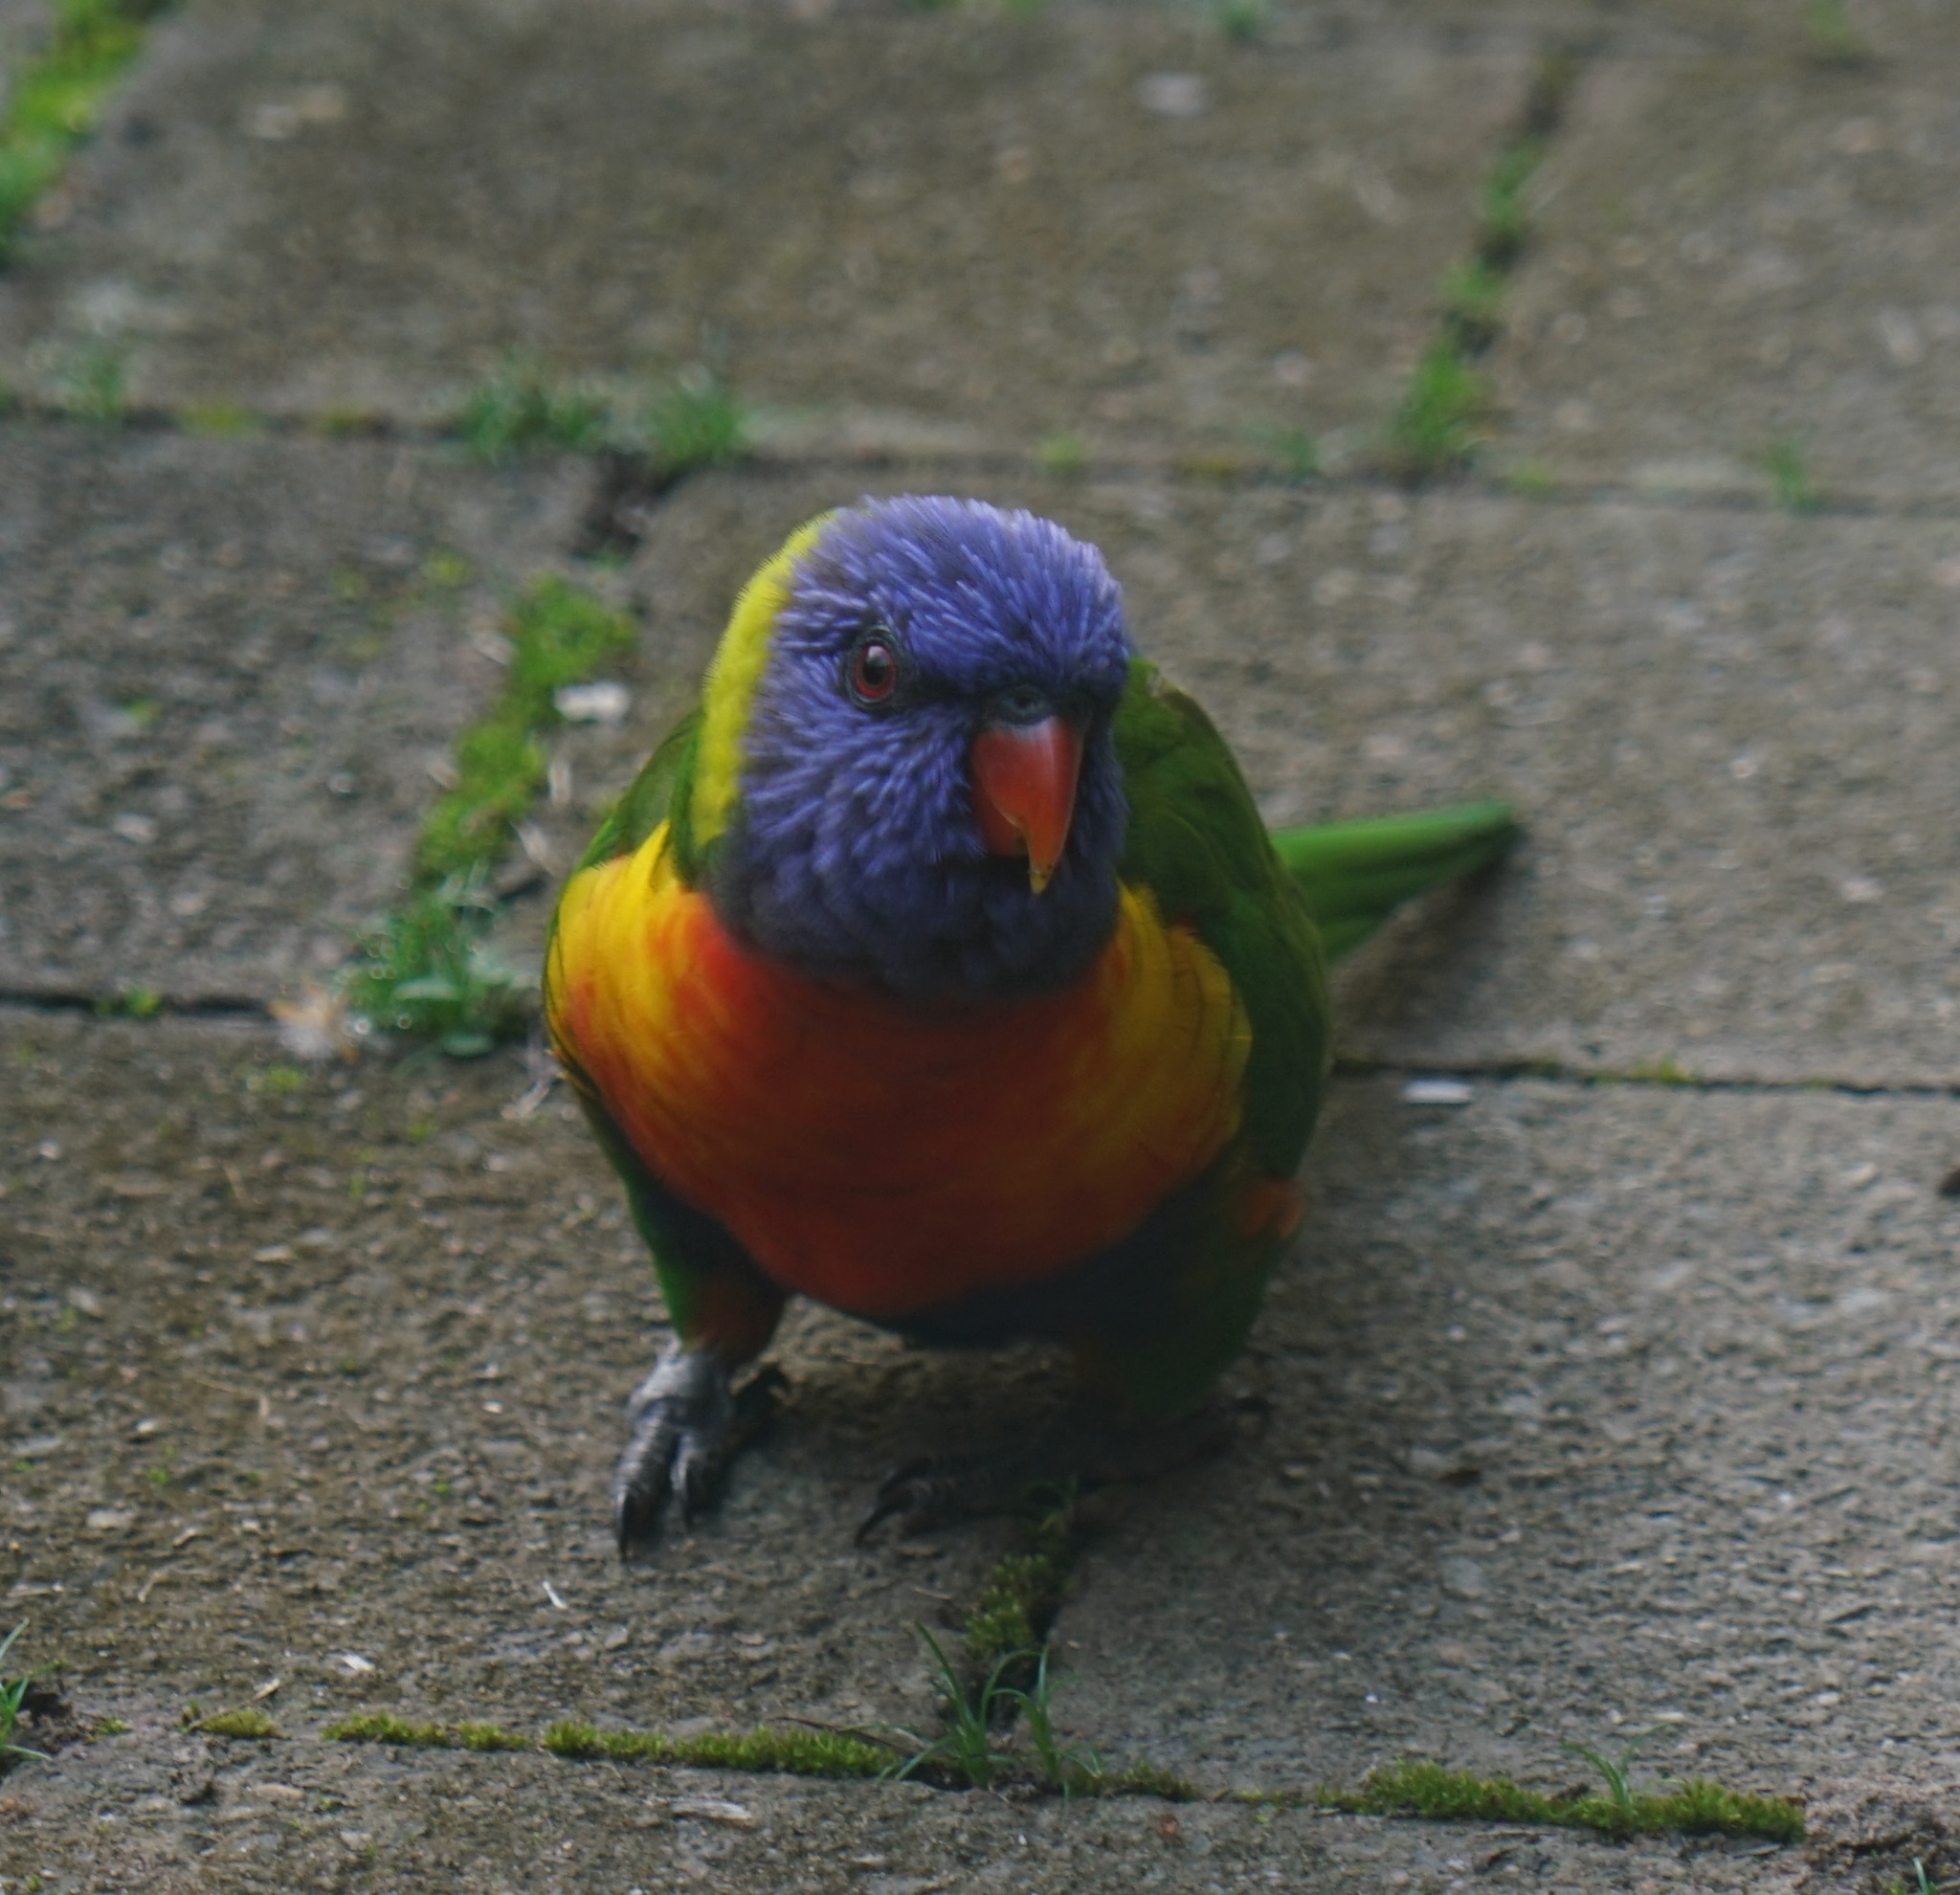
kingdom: Animalia
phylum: Chordata
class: Aves
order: Psittaciformes
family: Psittacidae
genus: Trichoglossus
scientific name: Trichoglossus haematodus
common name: Coconut lorikeet
